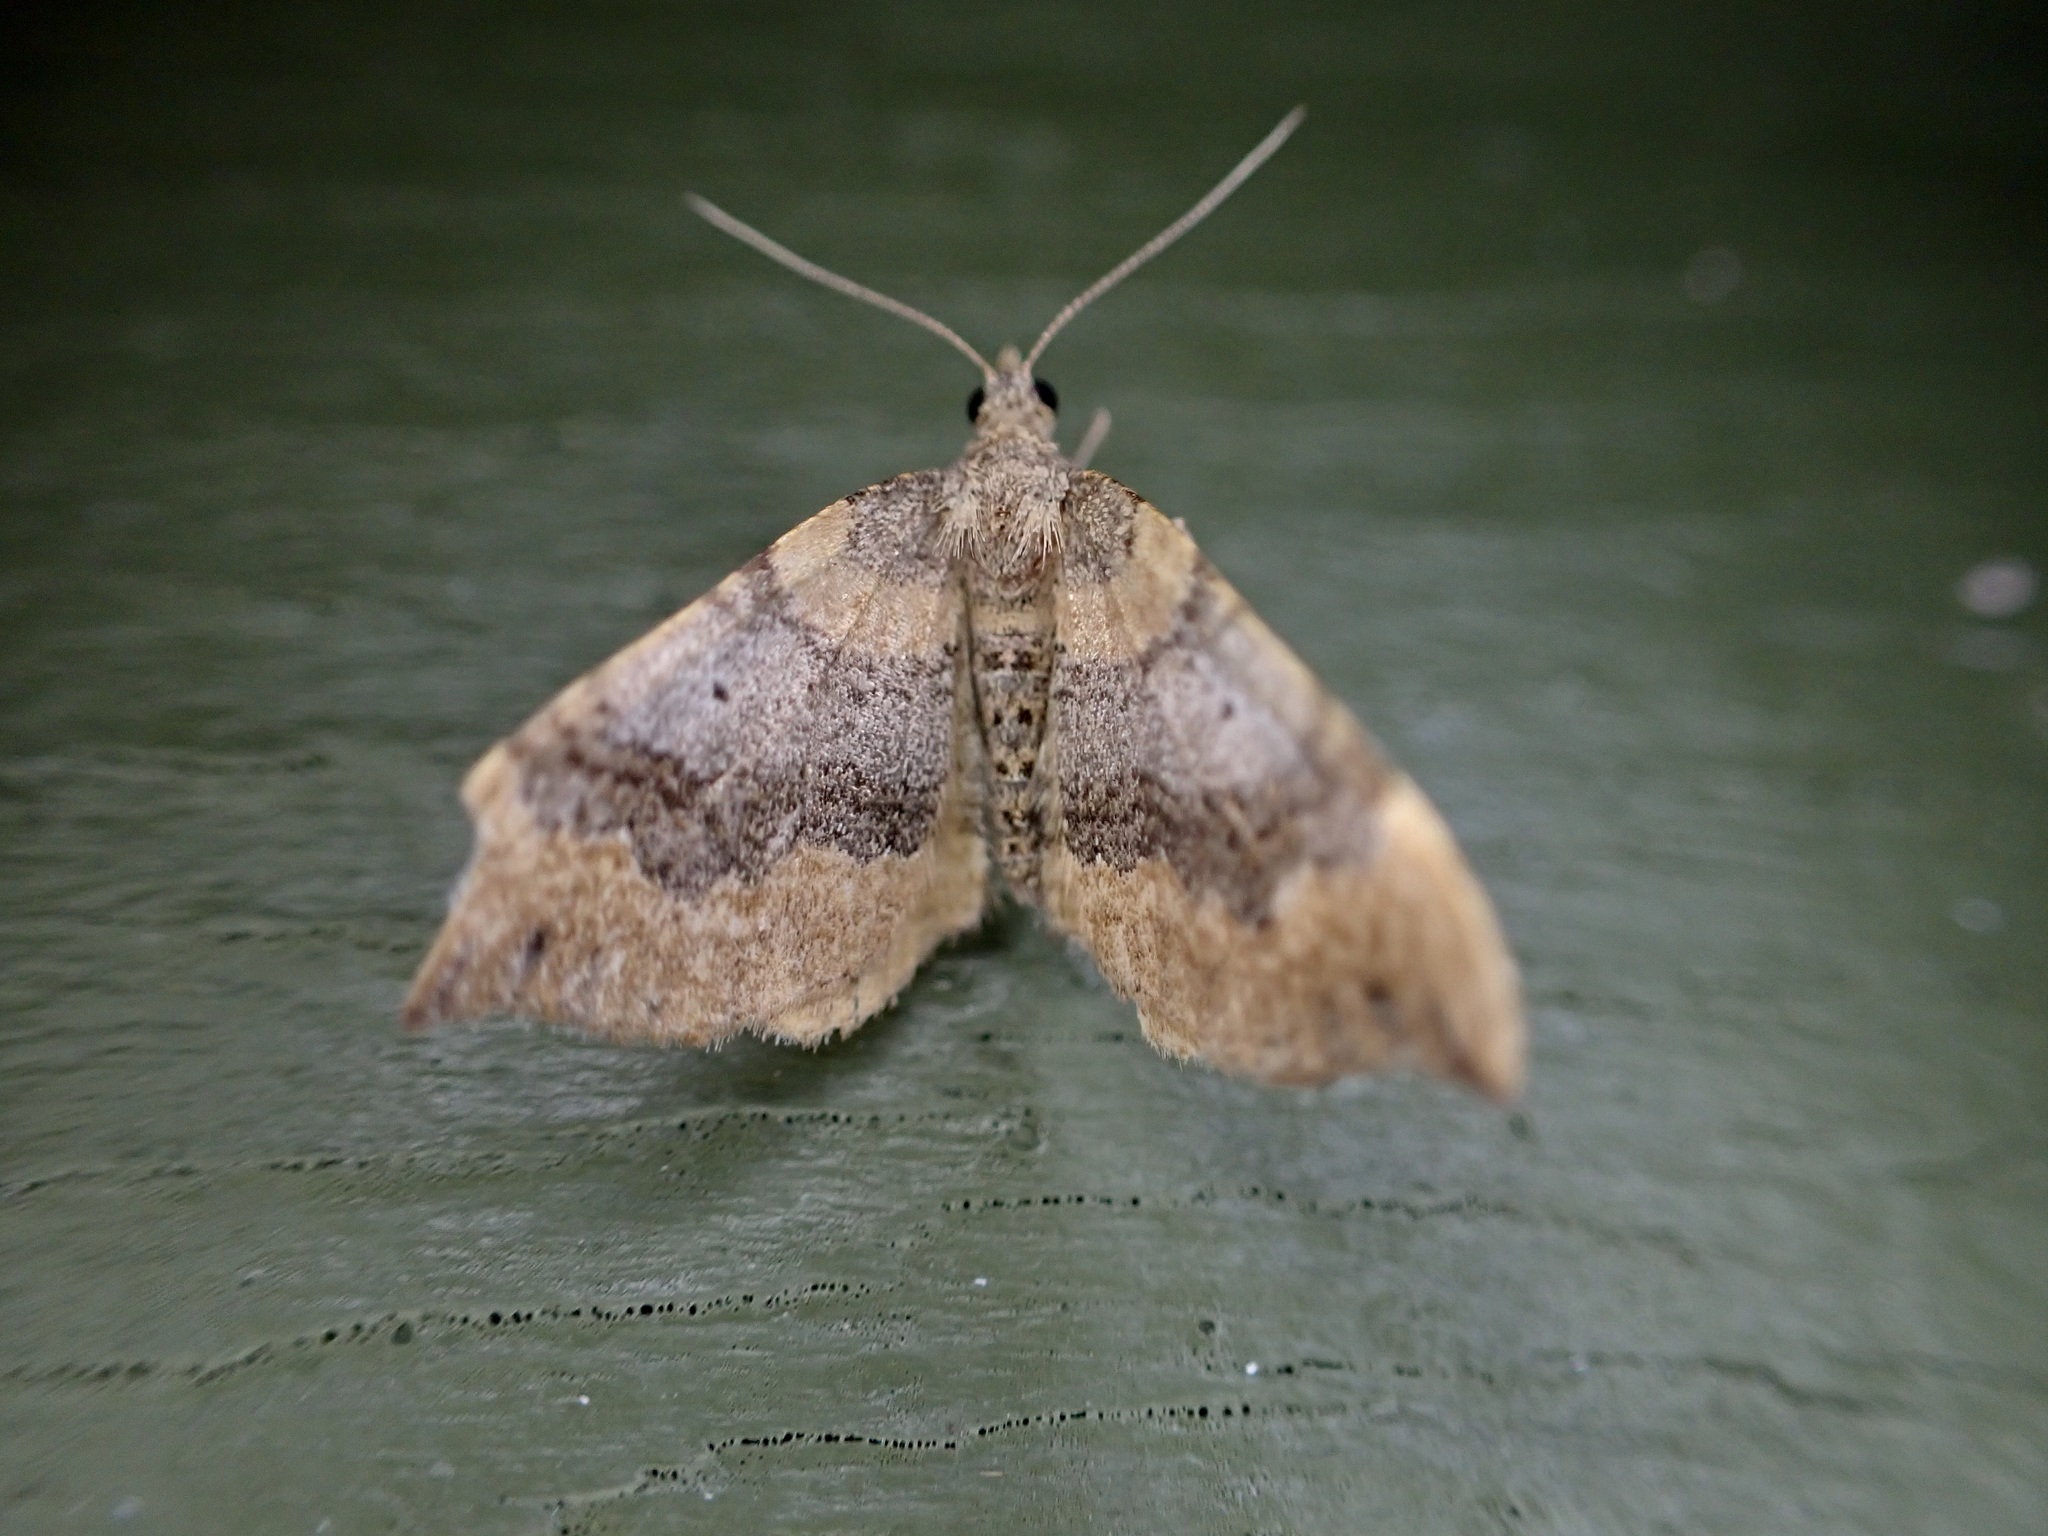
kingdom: Animalia
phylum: Arthropoda
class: Insecta
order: Lepidoptera
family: Geometridae
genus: Homodotis
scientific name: Homodotis megaspilata
